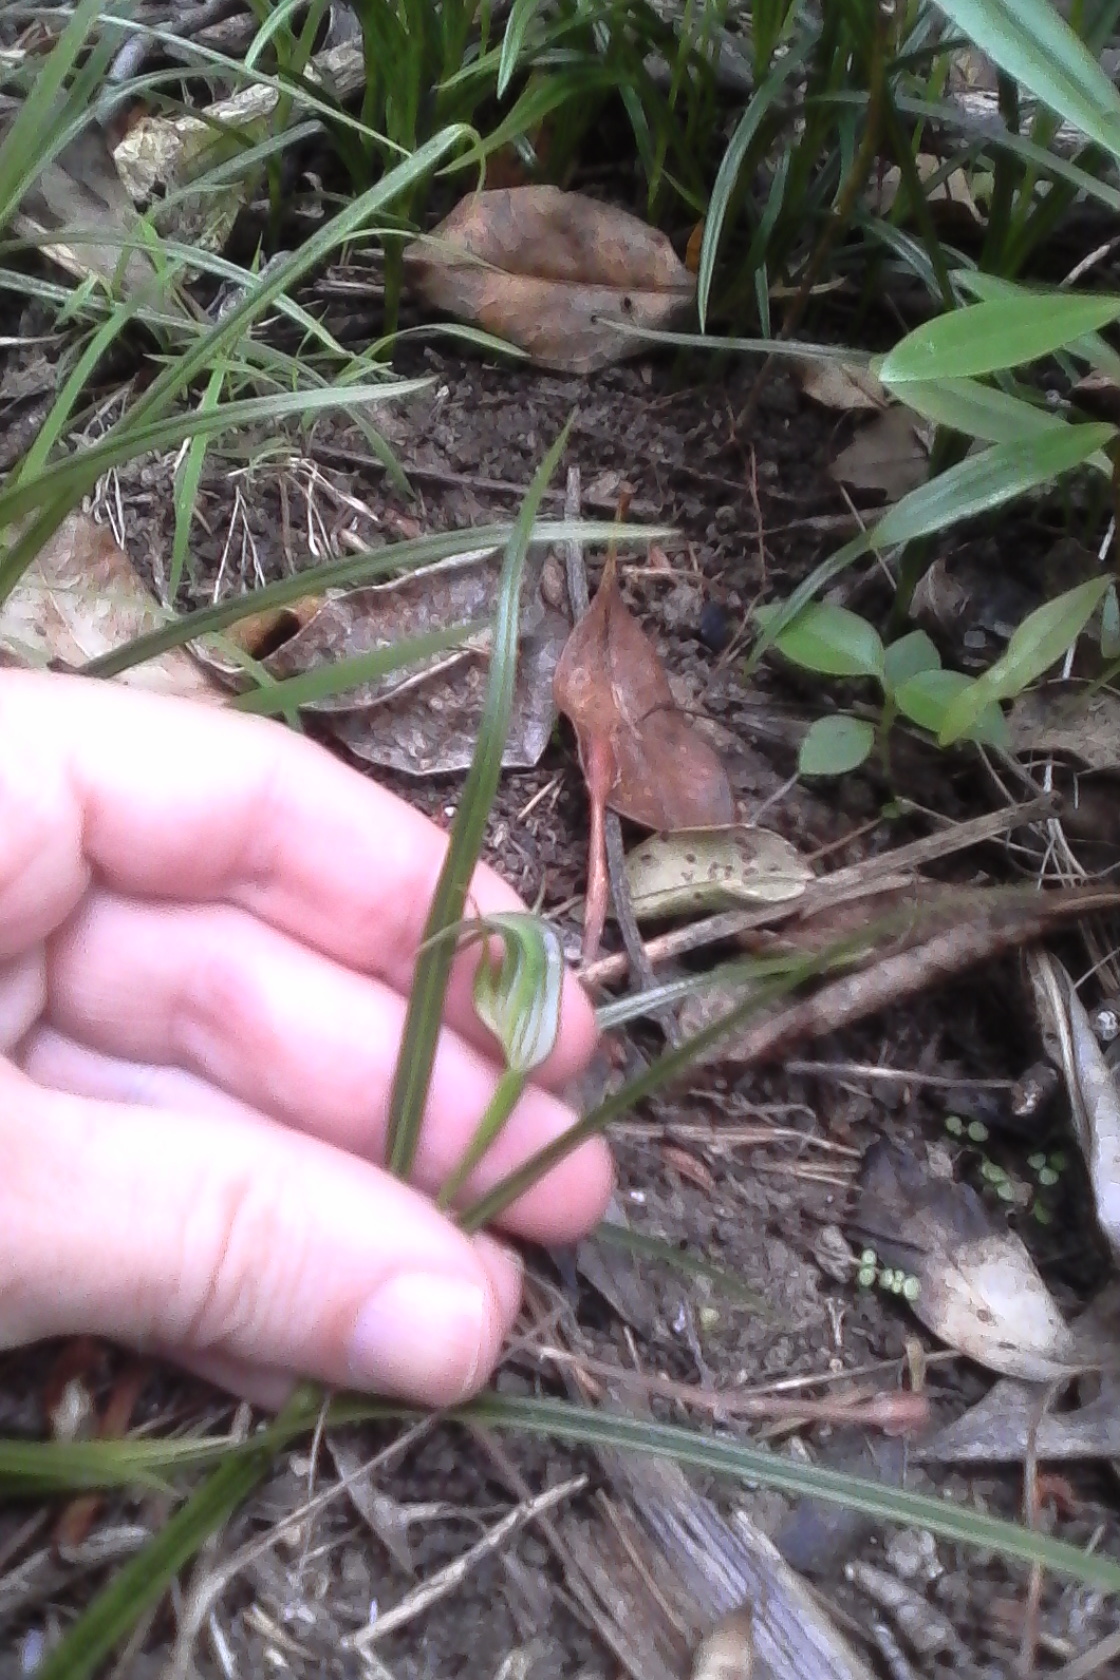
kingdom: Plantae
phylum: Tracheophyta
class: Liliopsida
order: Asparagales
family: Orchidaceae
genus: Pterostylis
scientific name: Pterostylis graminea
